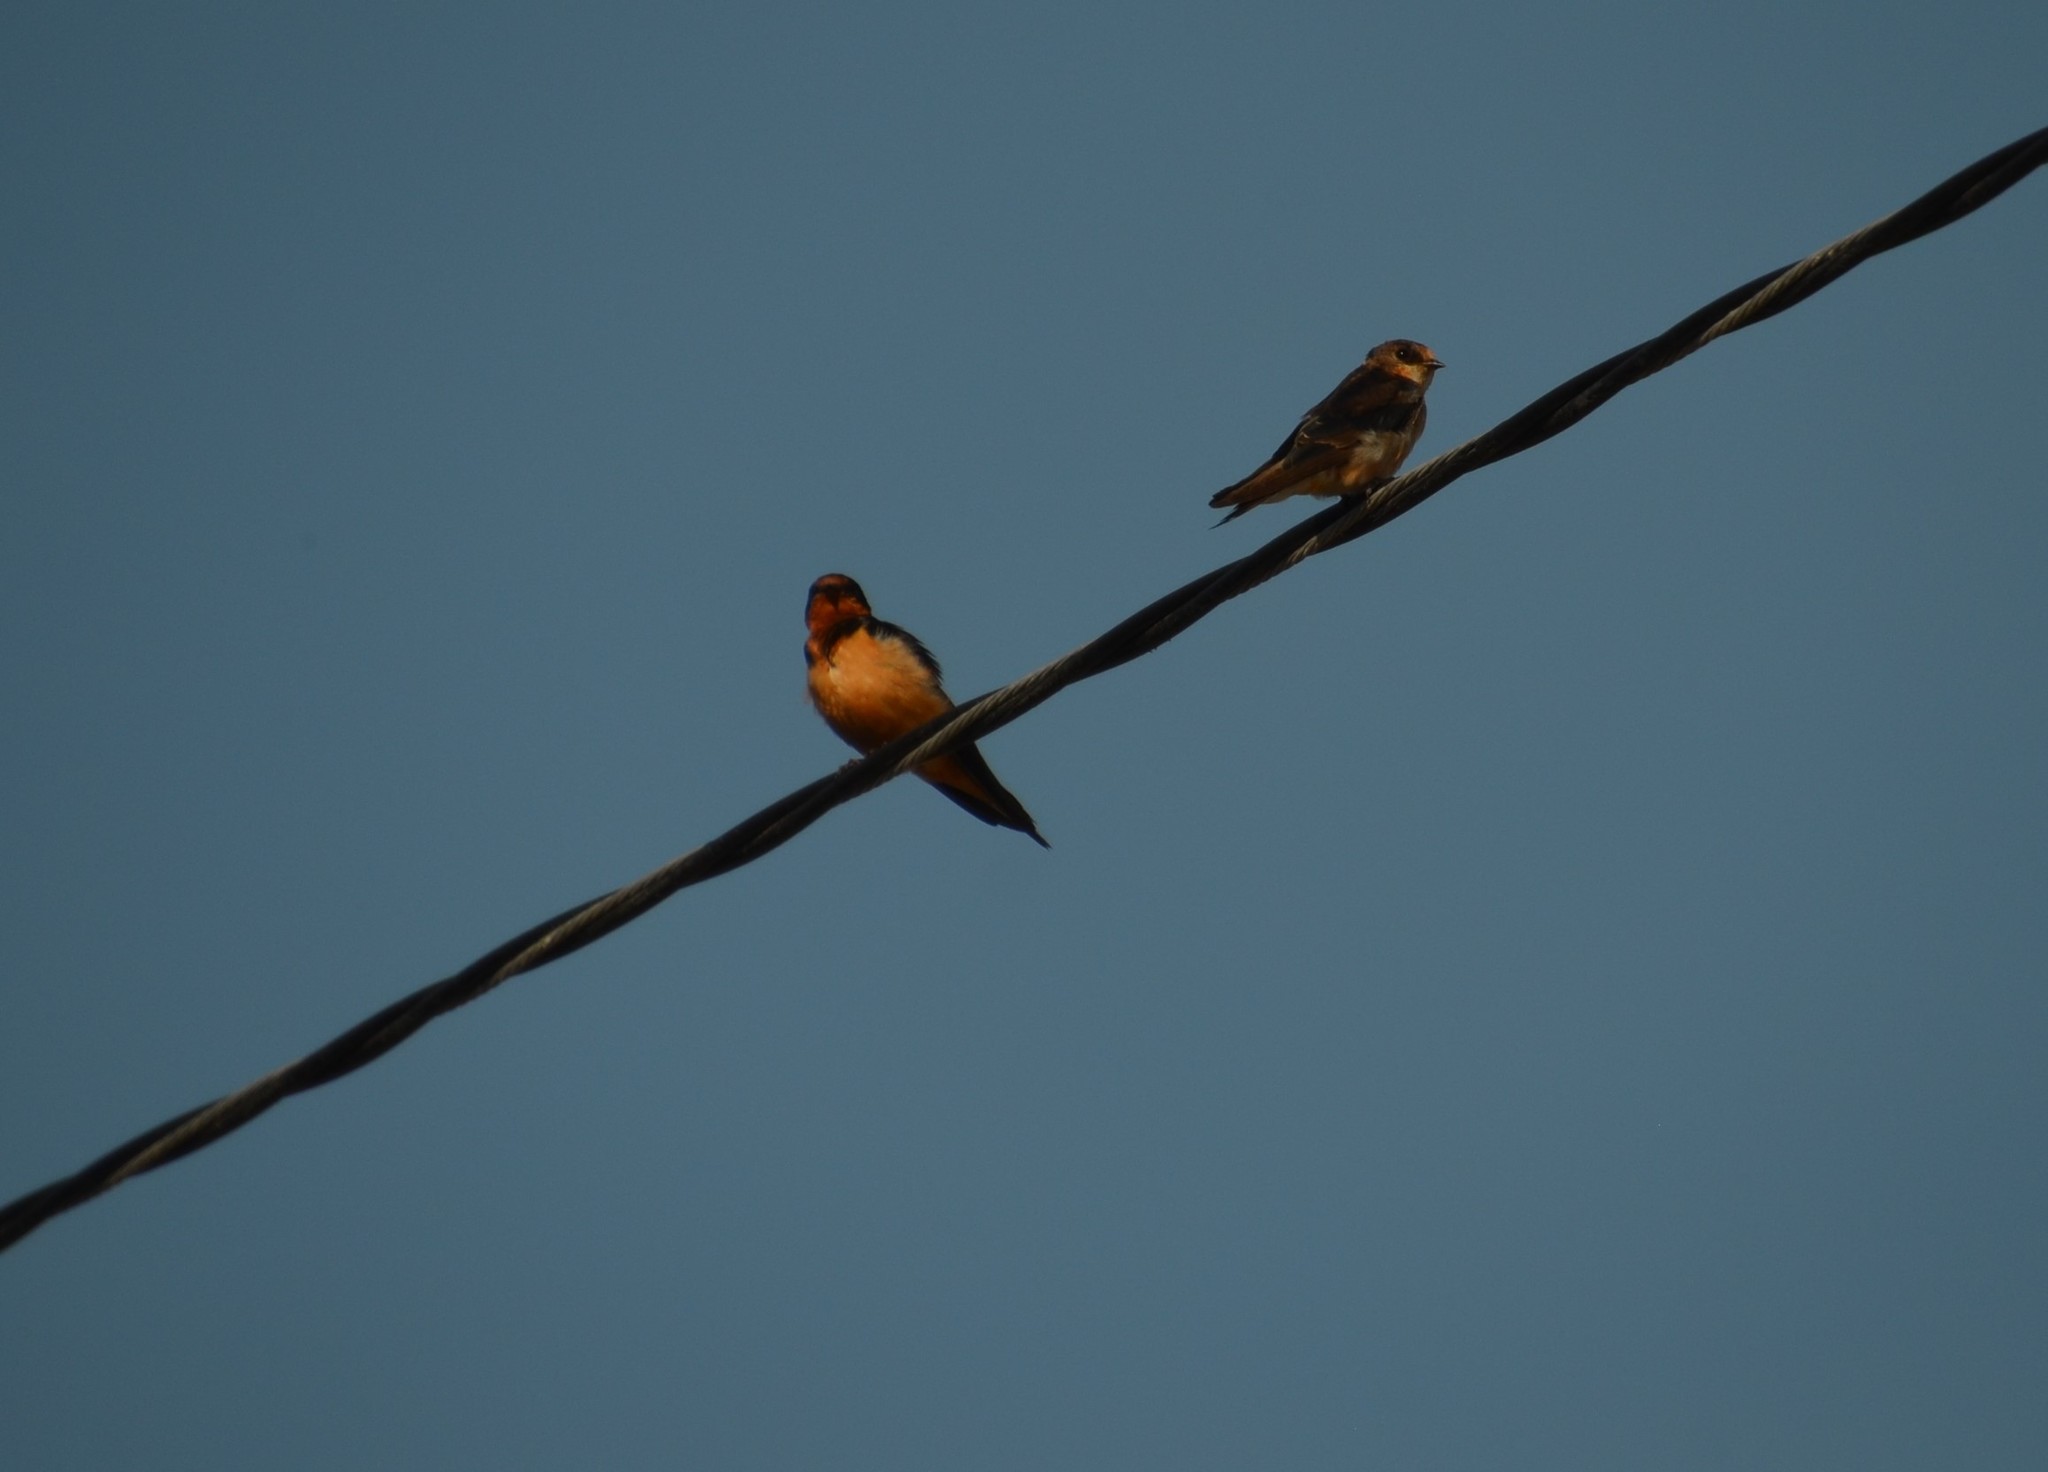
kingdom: Animalia
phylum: Chordata
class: Aves
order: Passeriformes
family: Hirundinidae
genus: Hirundo
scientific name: Hirundo rustica
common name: Barn swallow
